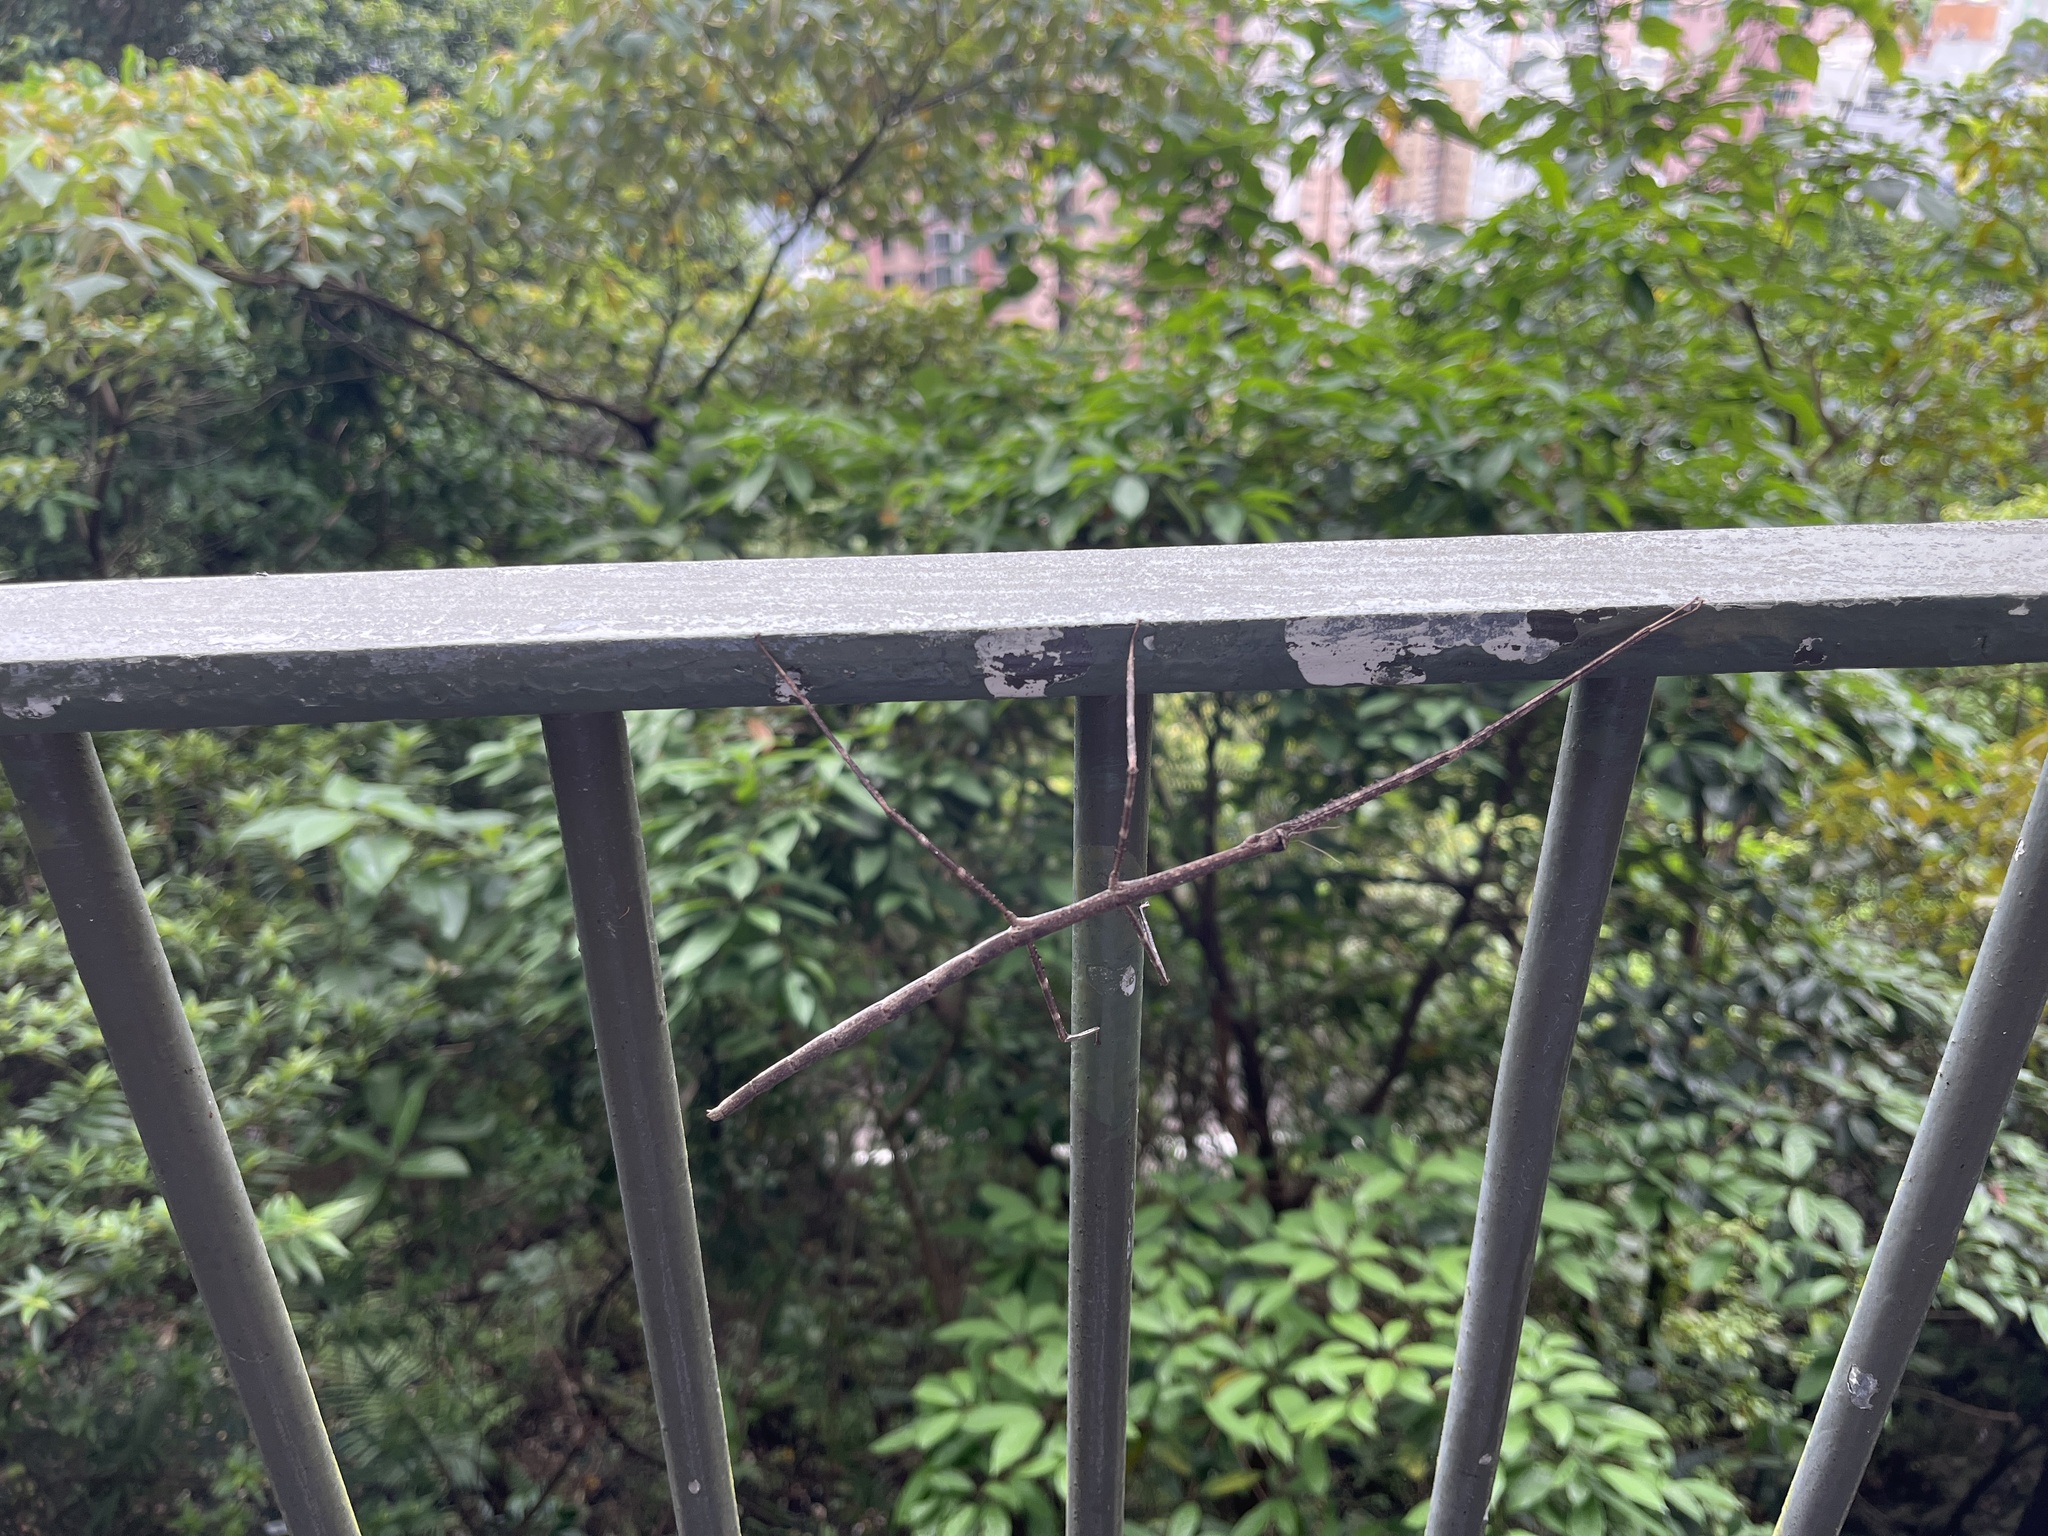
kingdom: Animalia
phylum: Arthropoda
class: Insecta
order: Phasmida
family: Phasmatidae
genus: Ramulus
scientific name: Ramulus caii
